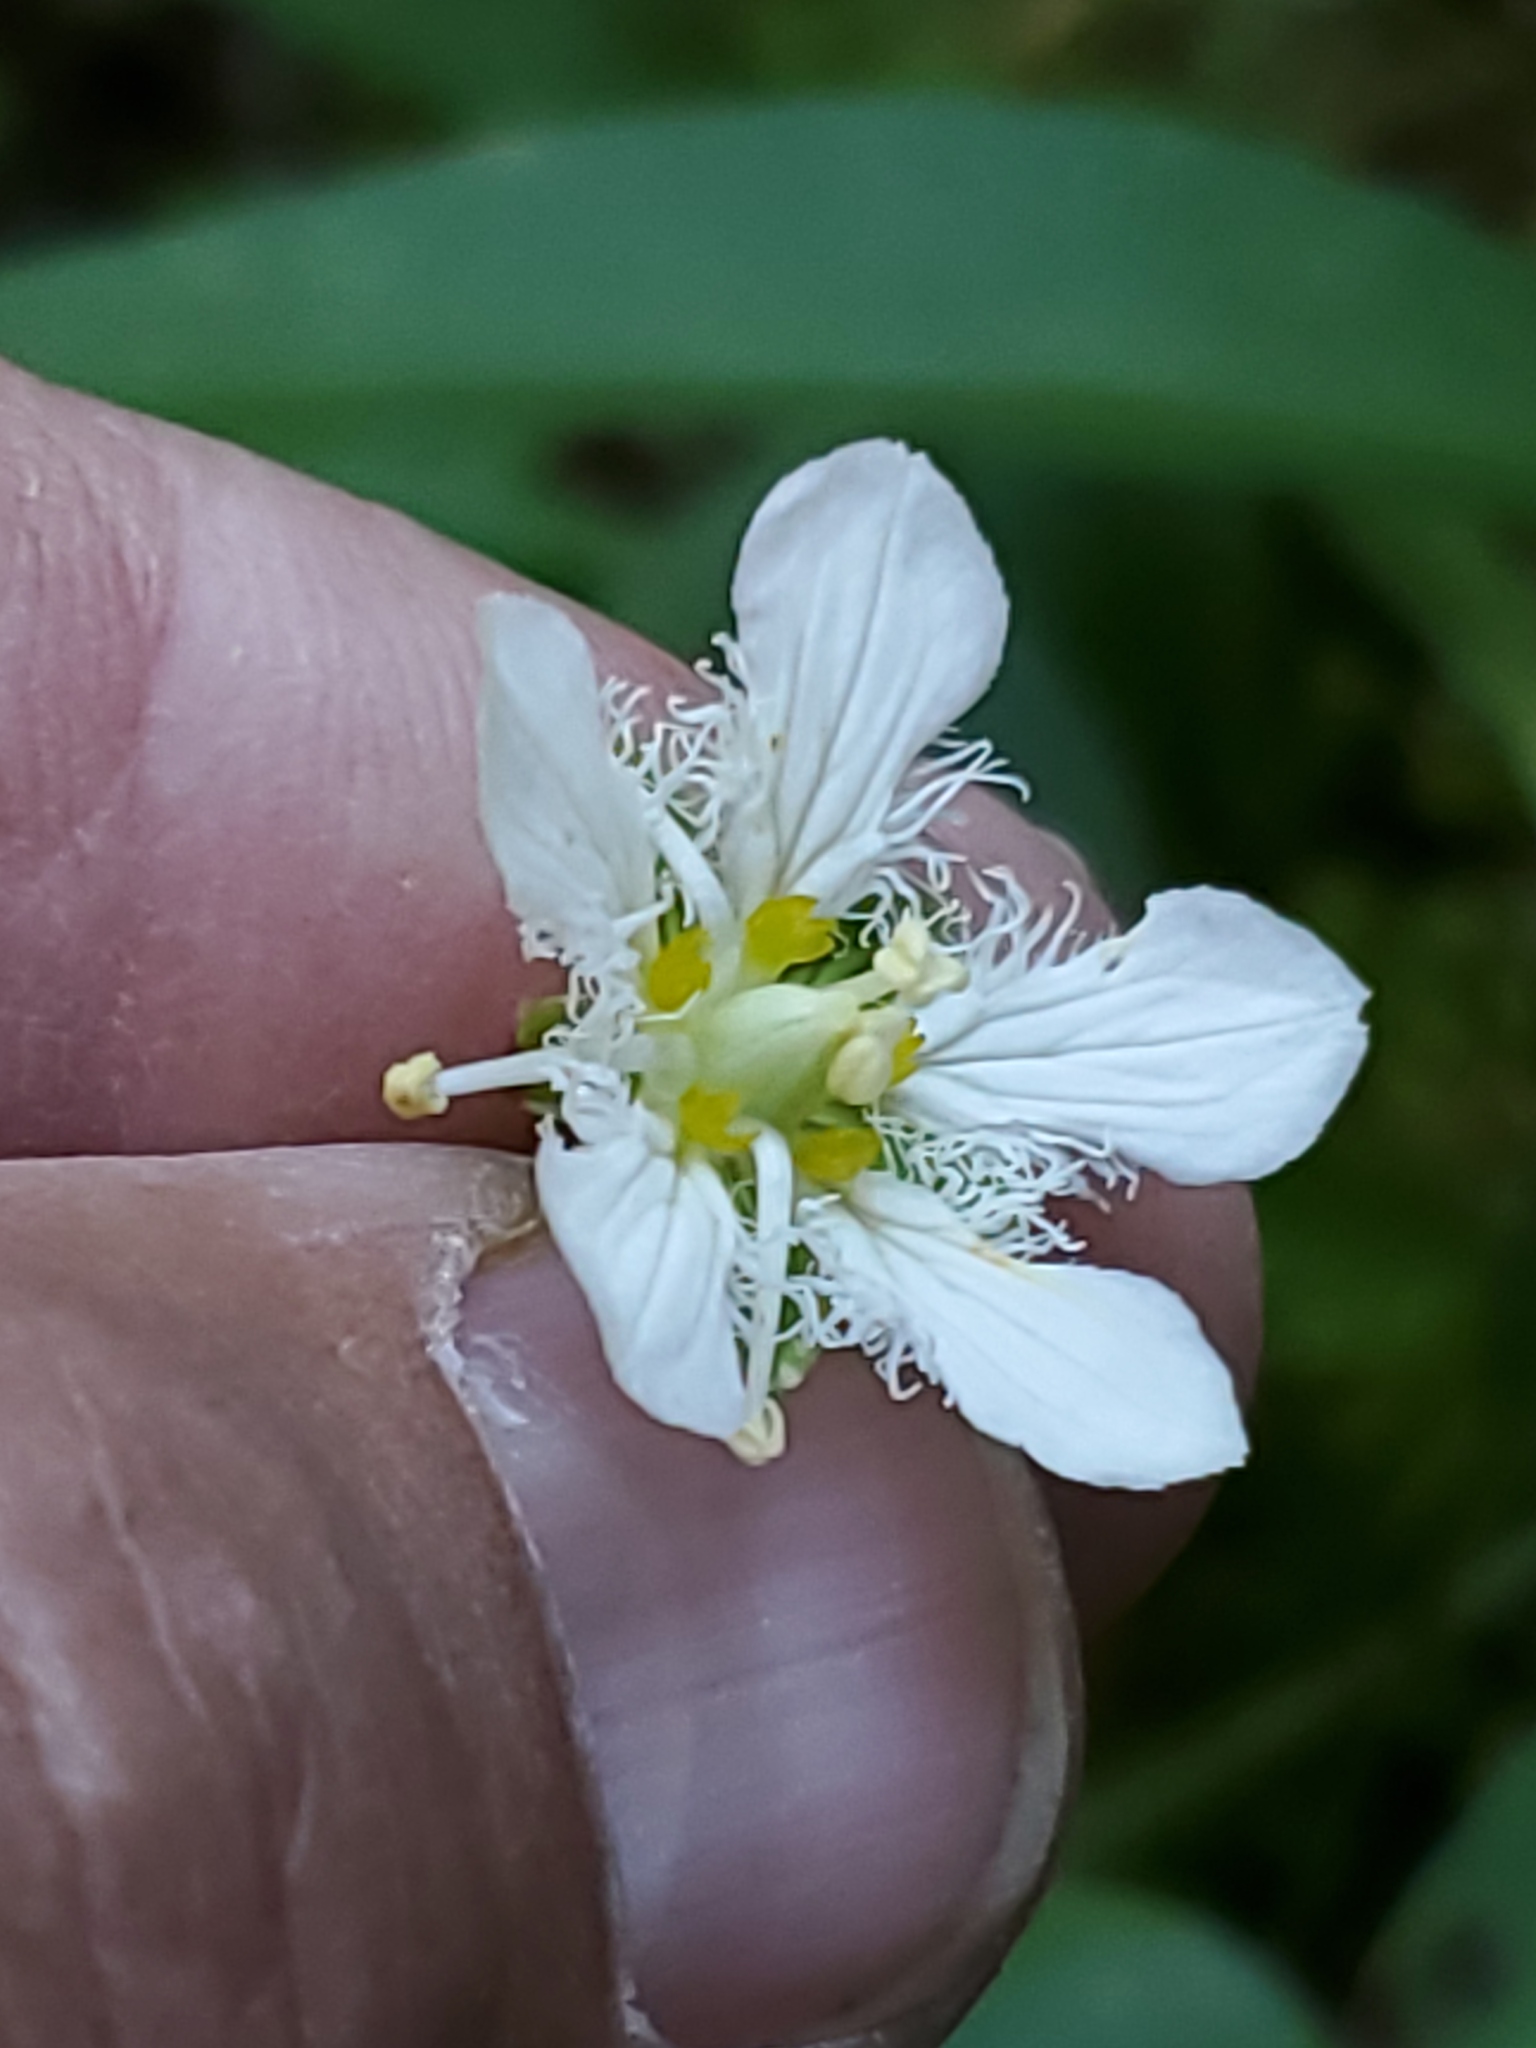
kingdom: Plantae
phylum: Tracheophyta
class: Magnoliopsida
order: Celastrales
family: Parnassiaceae
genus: Parnassia
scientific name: Parnassia fimbriata
